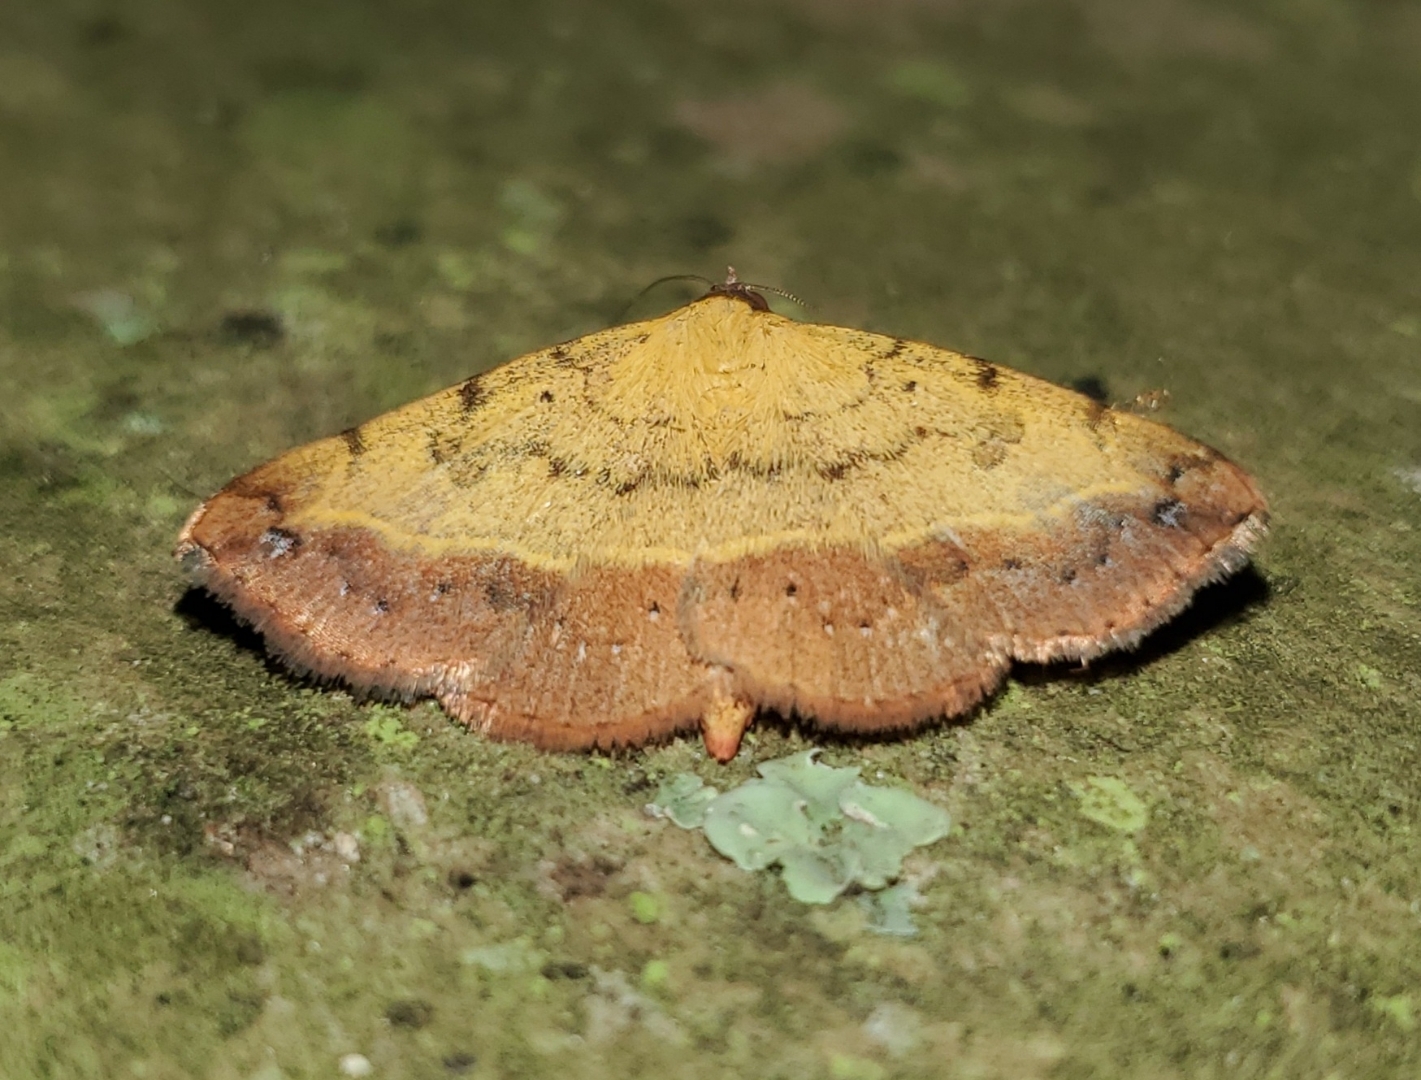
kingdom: Animalia
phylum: Arthropoda
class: Insecta
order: Lepidoptera
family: Erebidae
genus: Hemeroplanis
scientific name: Hemeroplanis scopulepes
